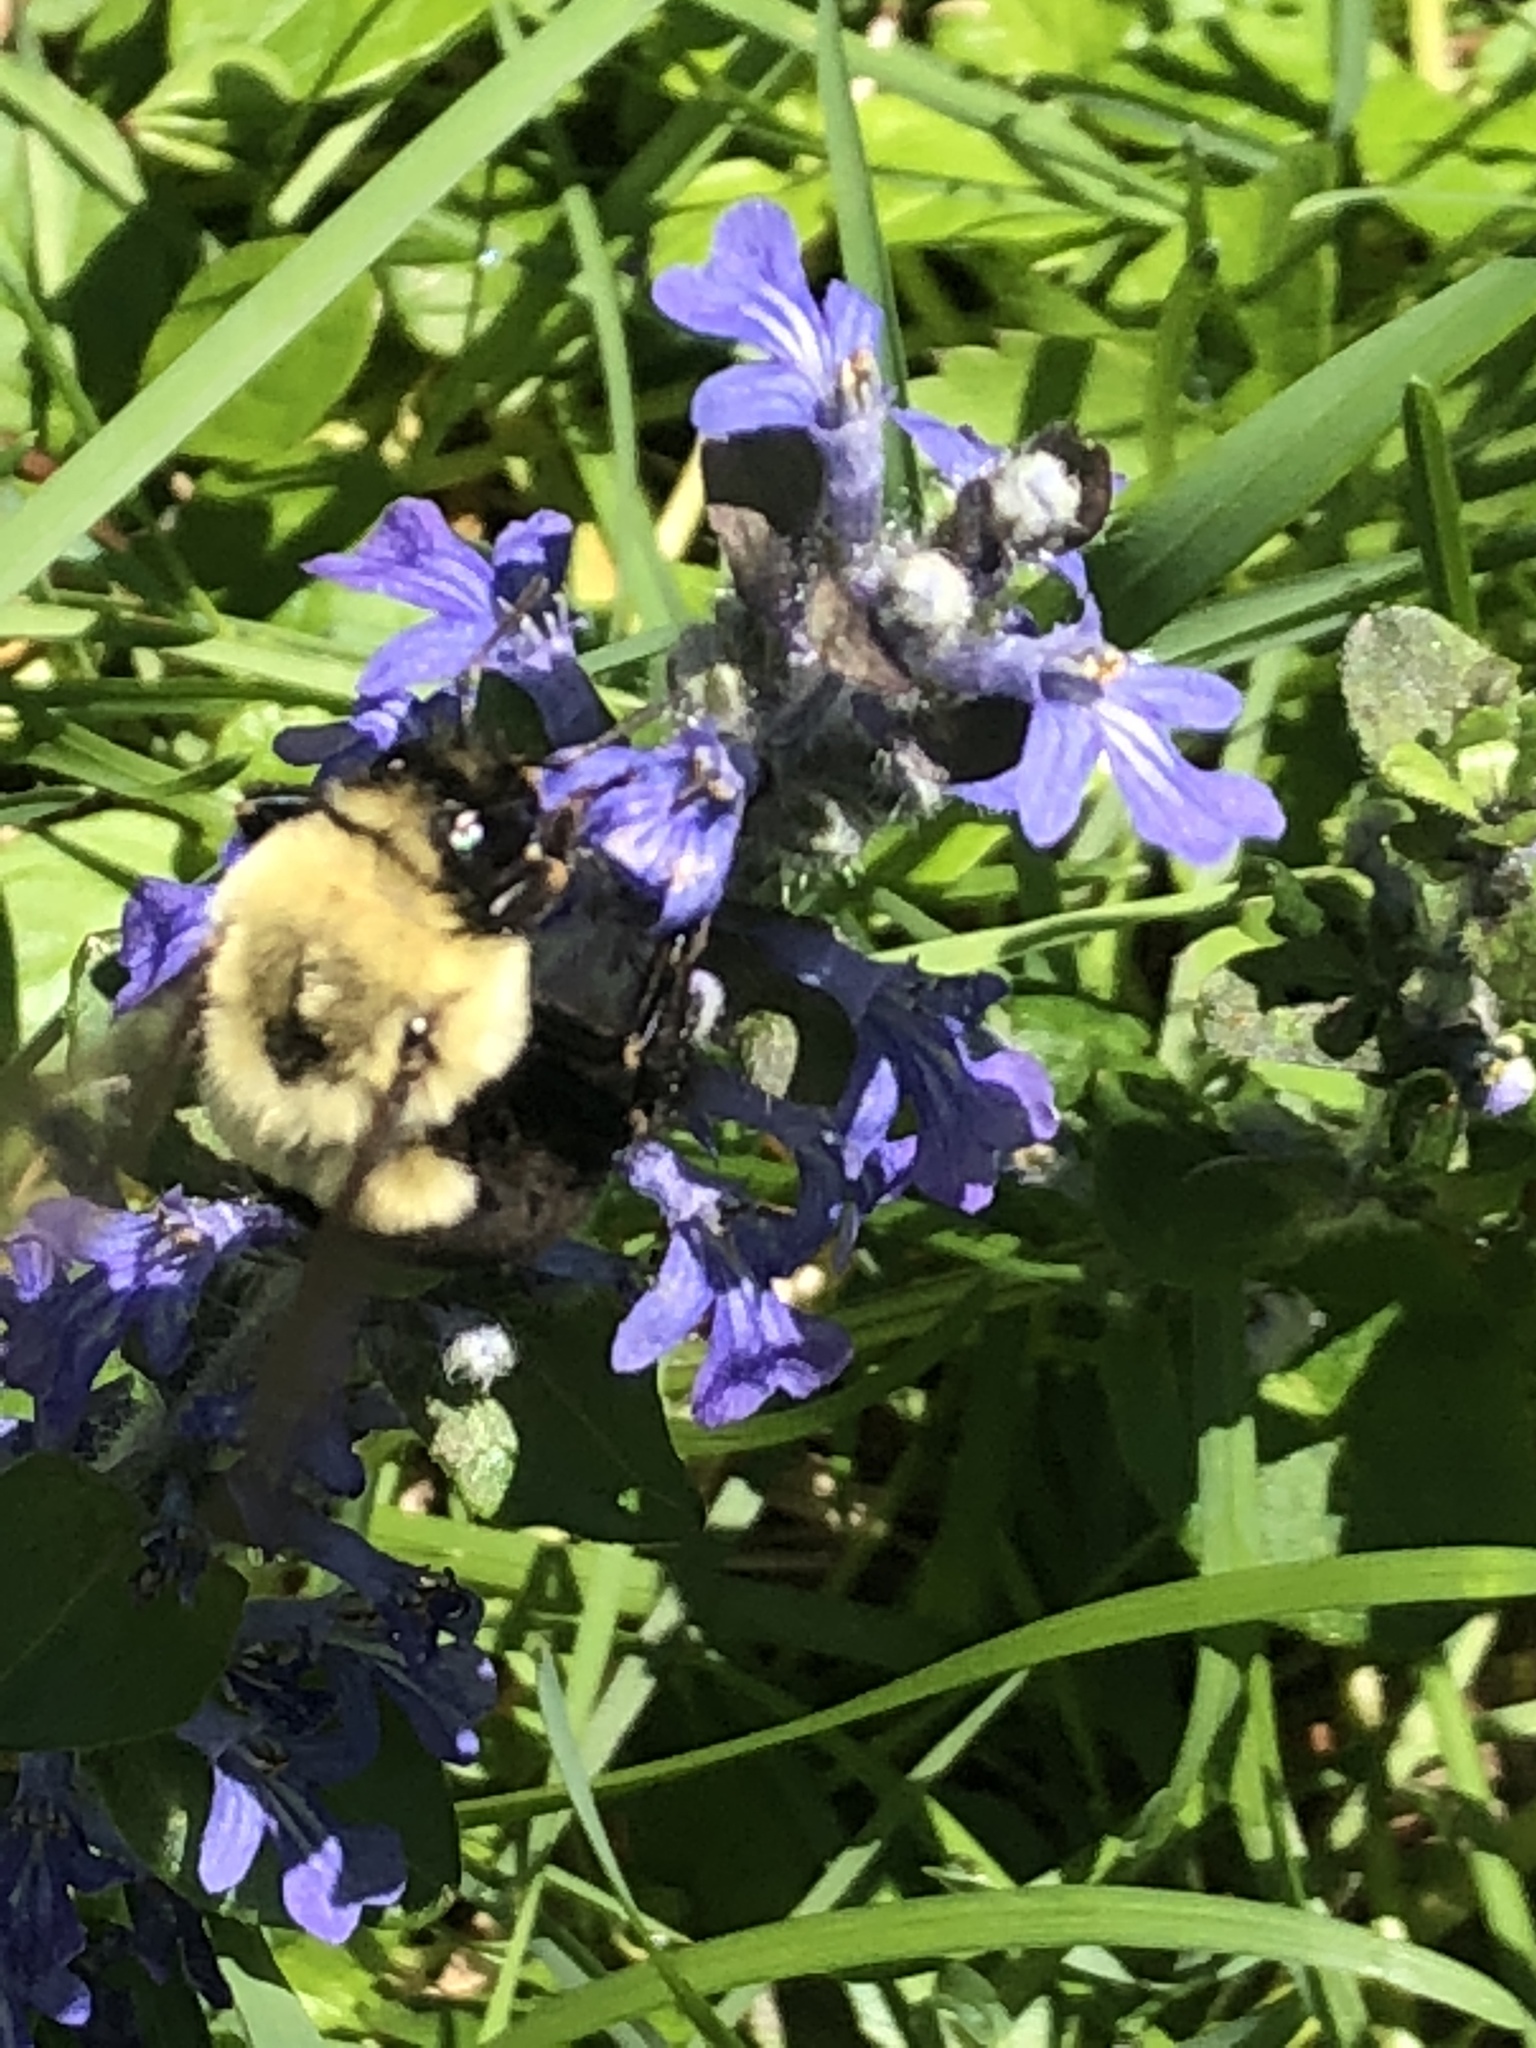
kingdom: Animalia
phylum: Arthropoda
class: Insecta
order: Hymenoptera
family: Apidae
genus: Bombus
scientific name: Bombus impatiens
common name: Common eastern bumble bee
